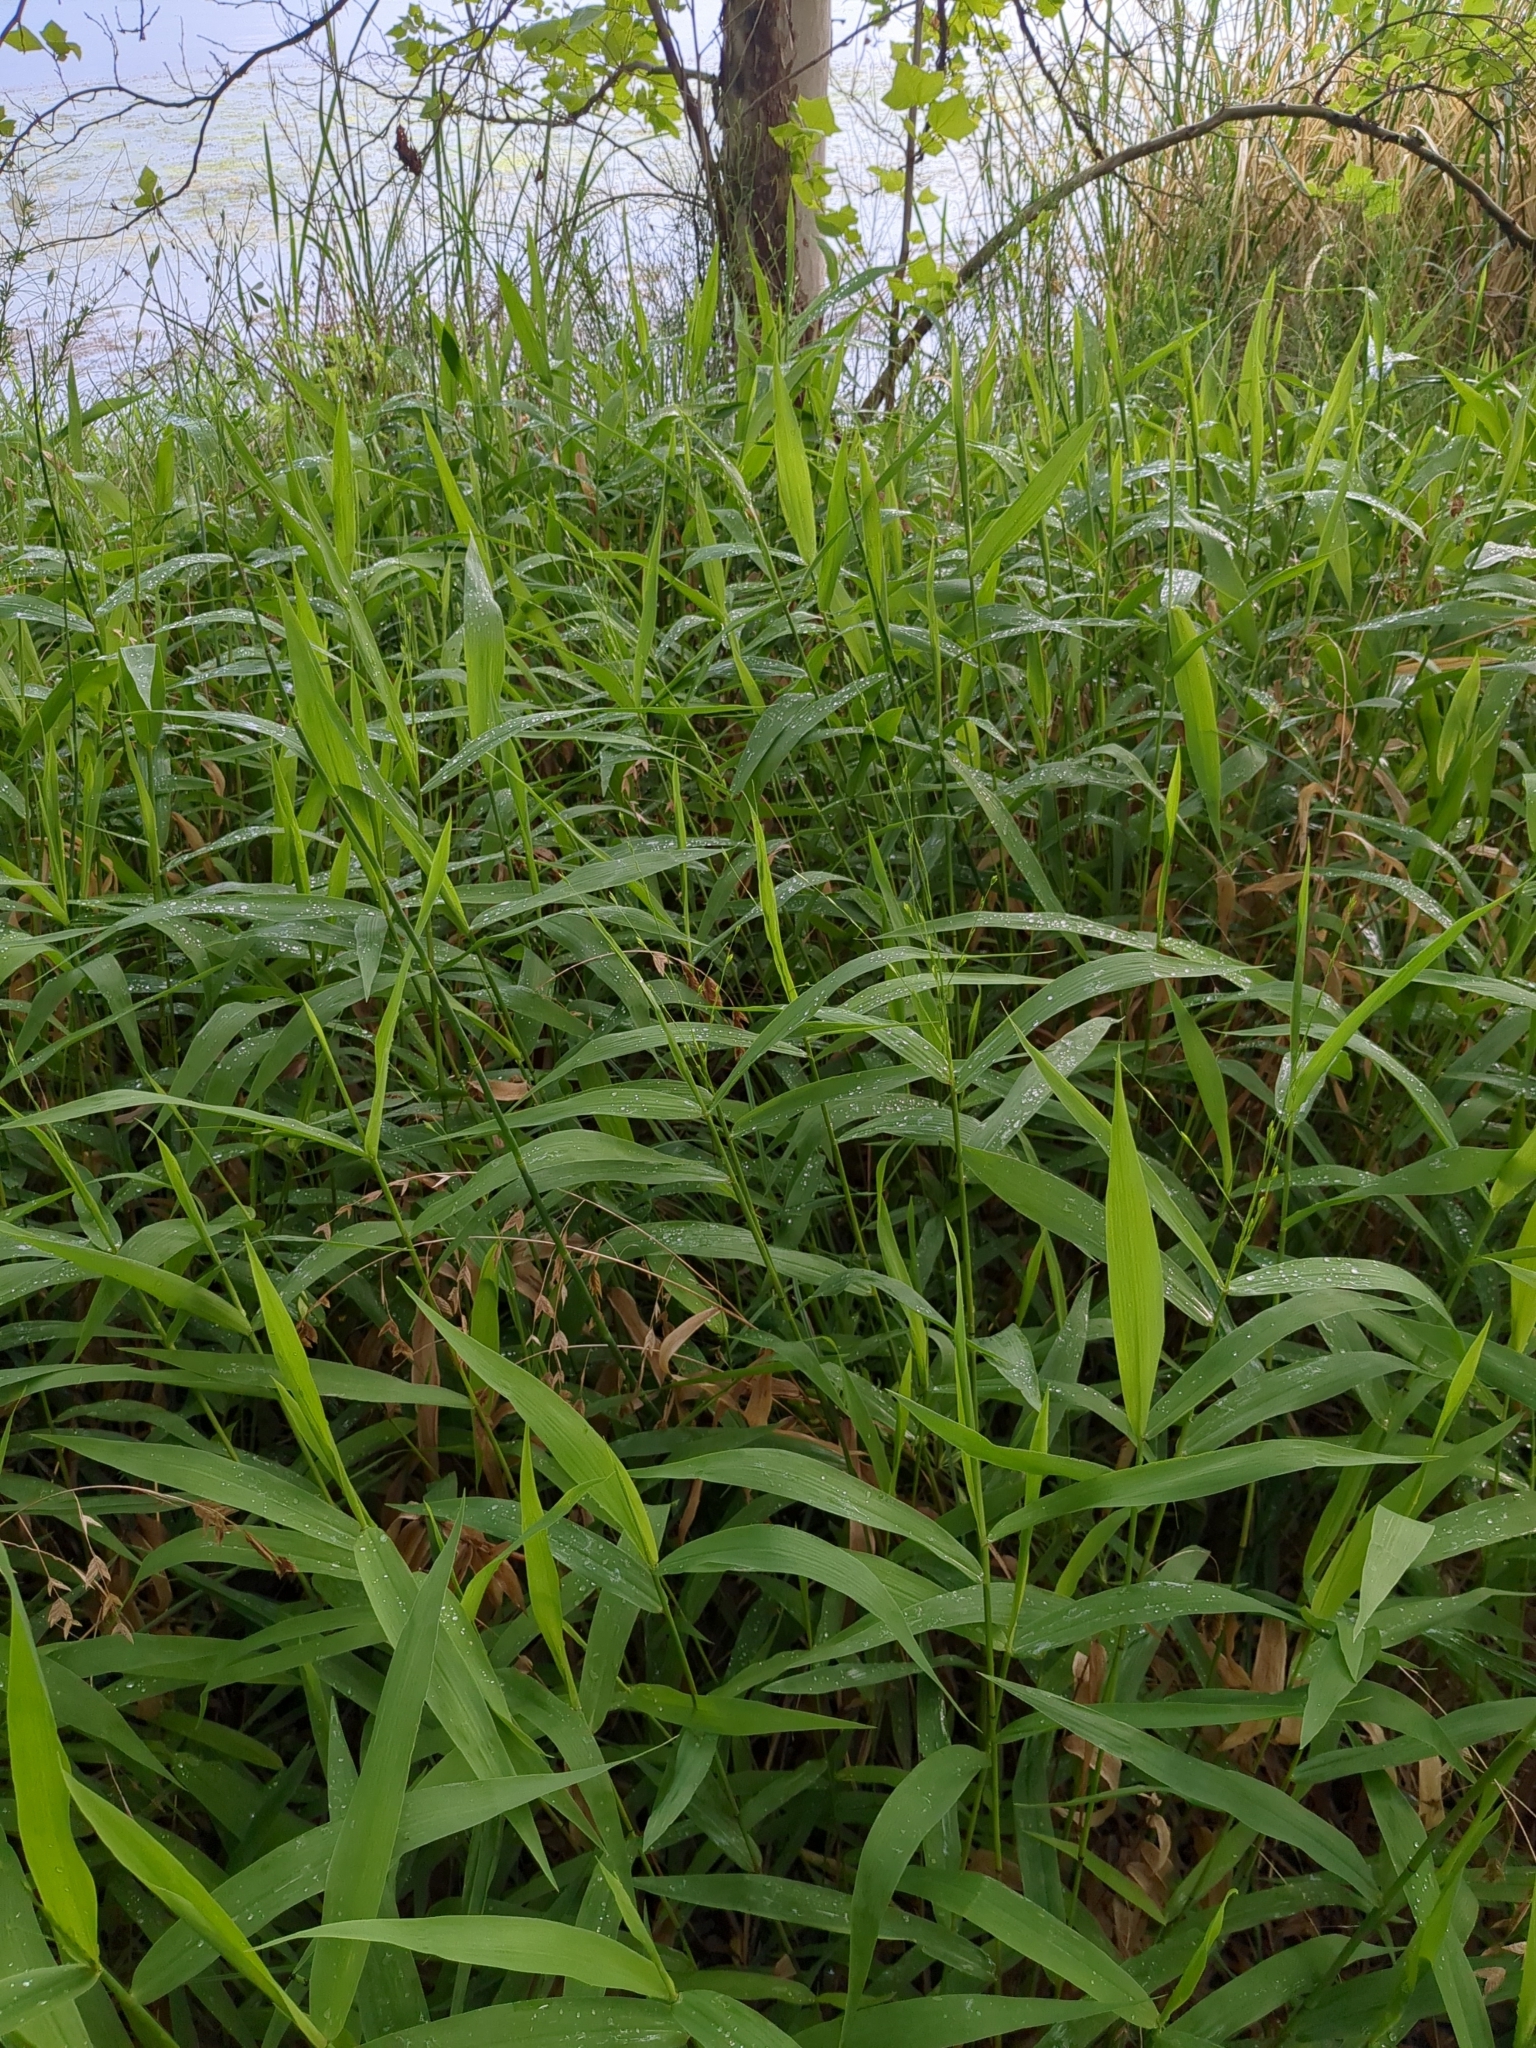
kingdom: Plantae
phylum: Tracheophyta
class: Liliopsida
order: Poales
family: Poaceae
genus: Chasmanthium
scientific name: Chasmanthium latifolium
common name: Broad-leaved chasmanthium
